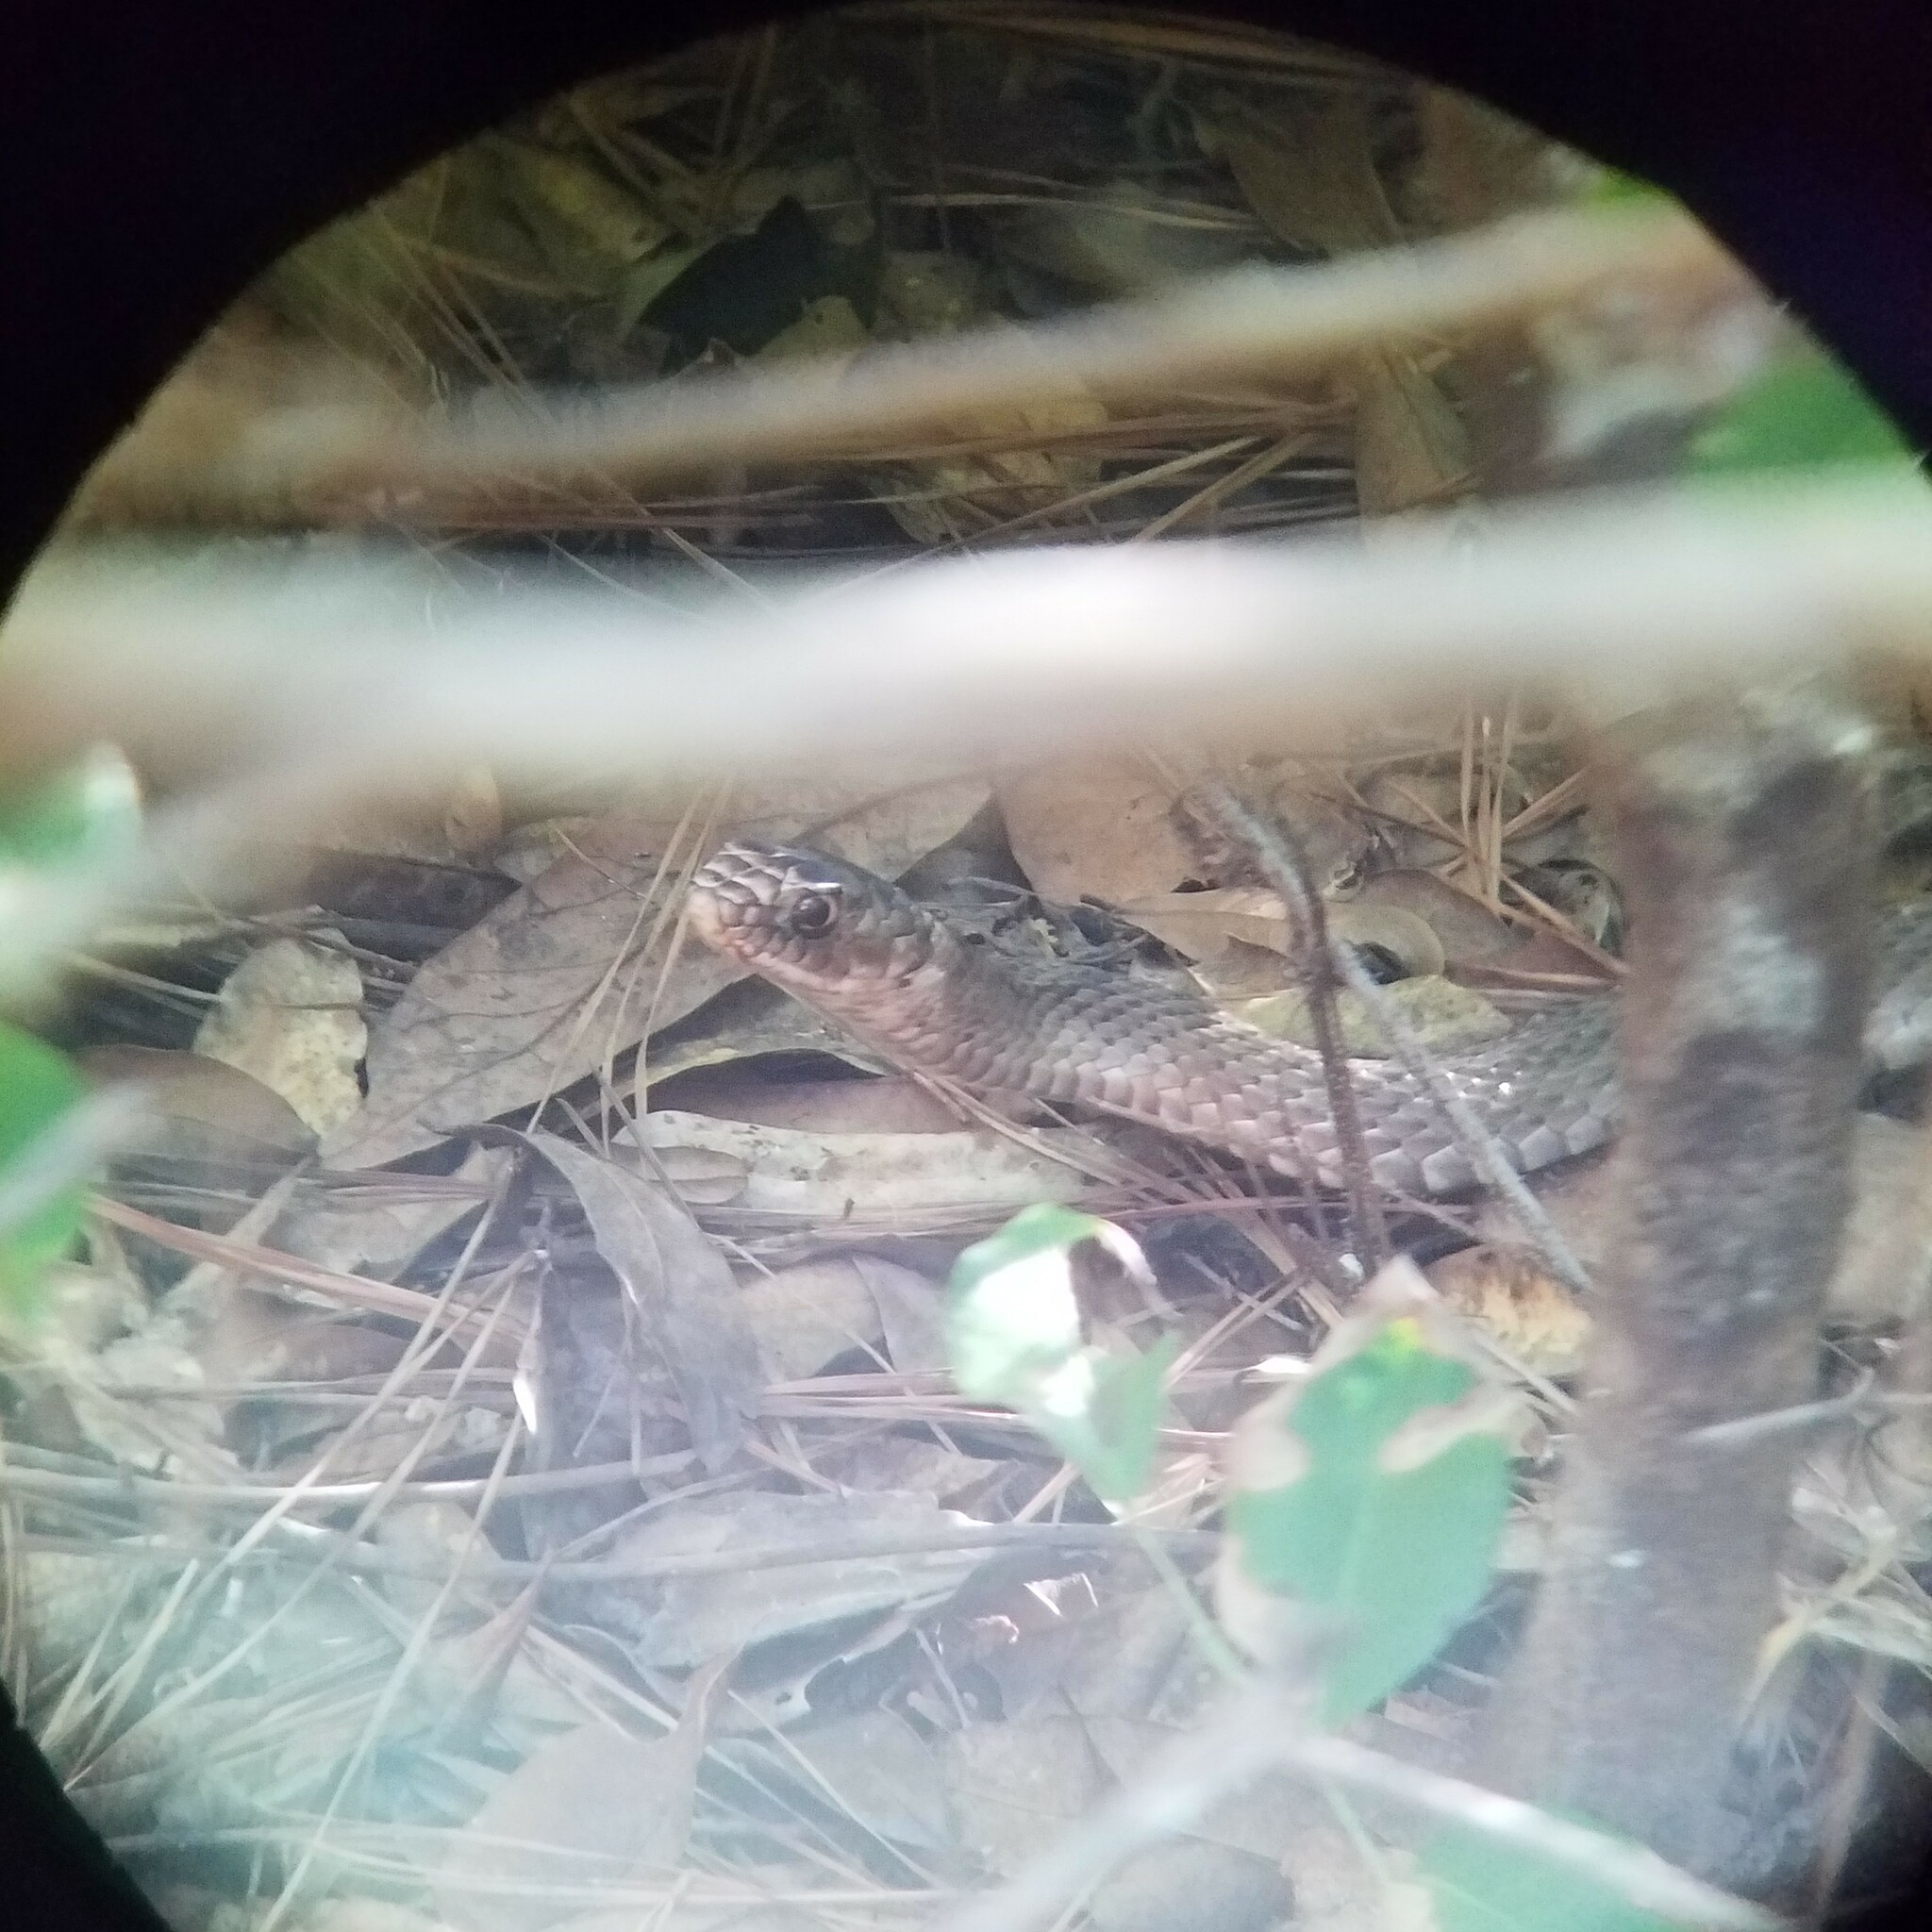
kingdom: Animalia
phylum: Chordata
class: Squamata
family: Colubridae
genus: Masticophis
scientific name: Masticophis flagellum
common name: Coachwhip
